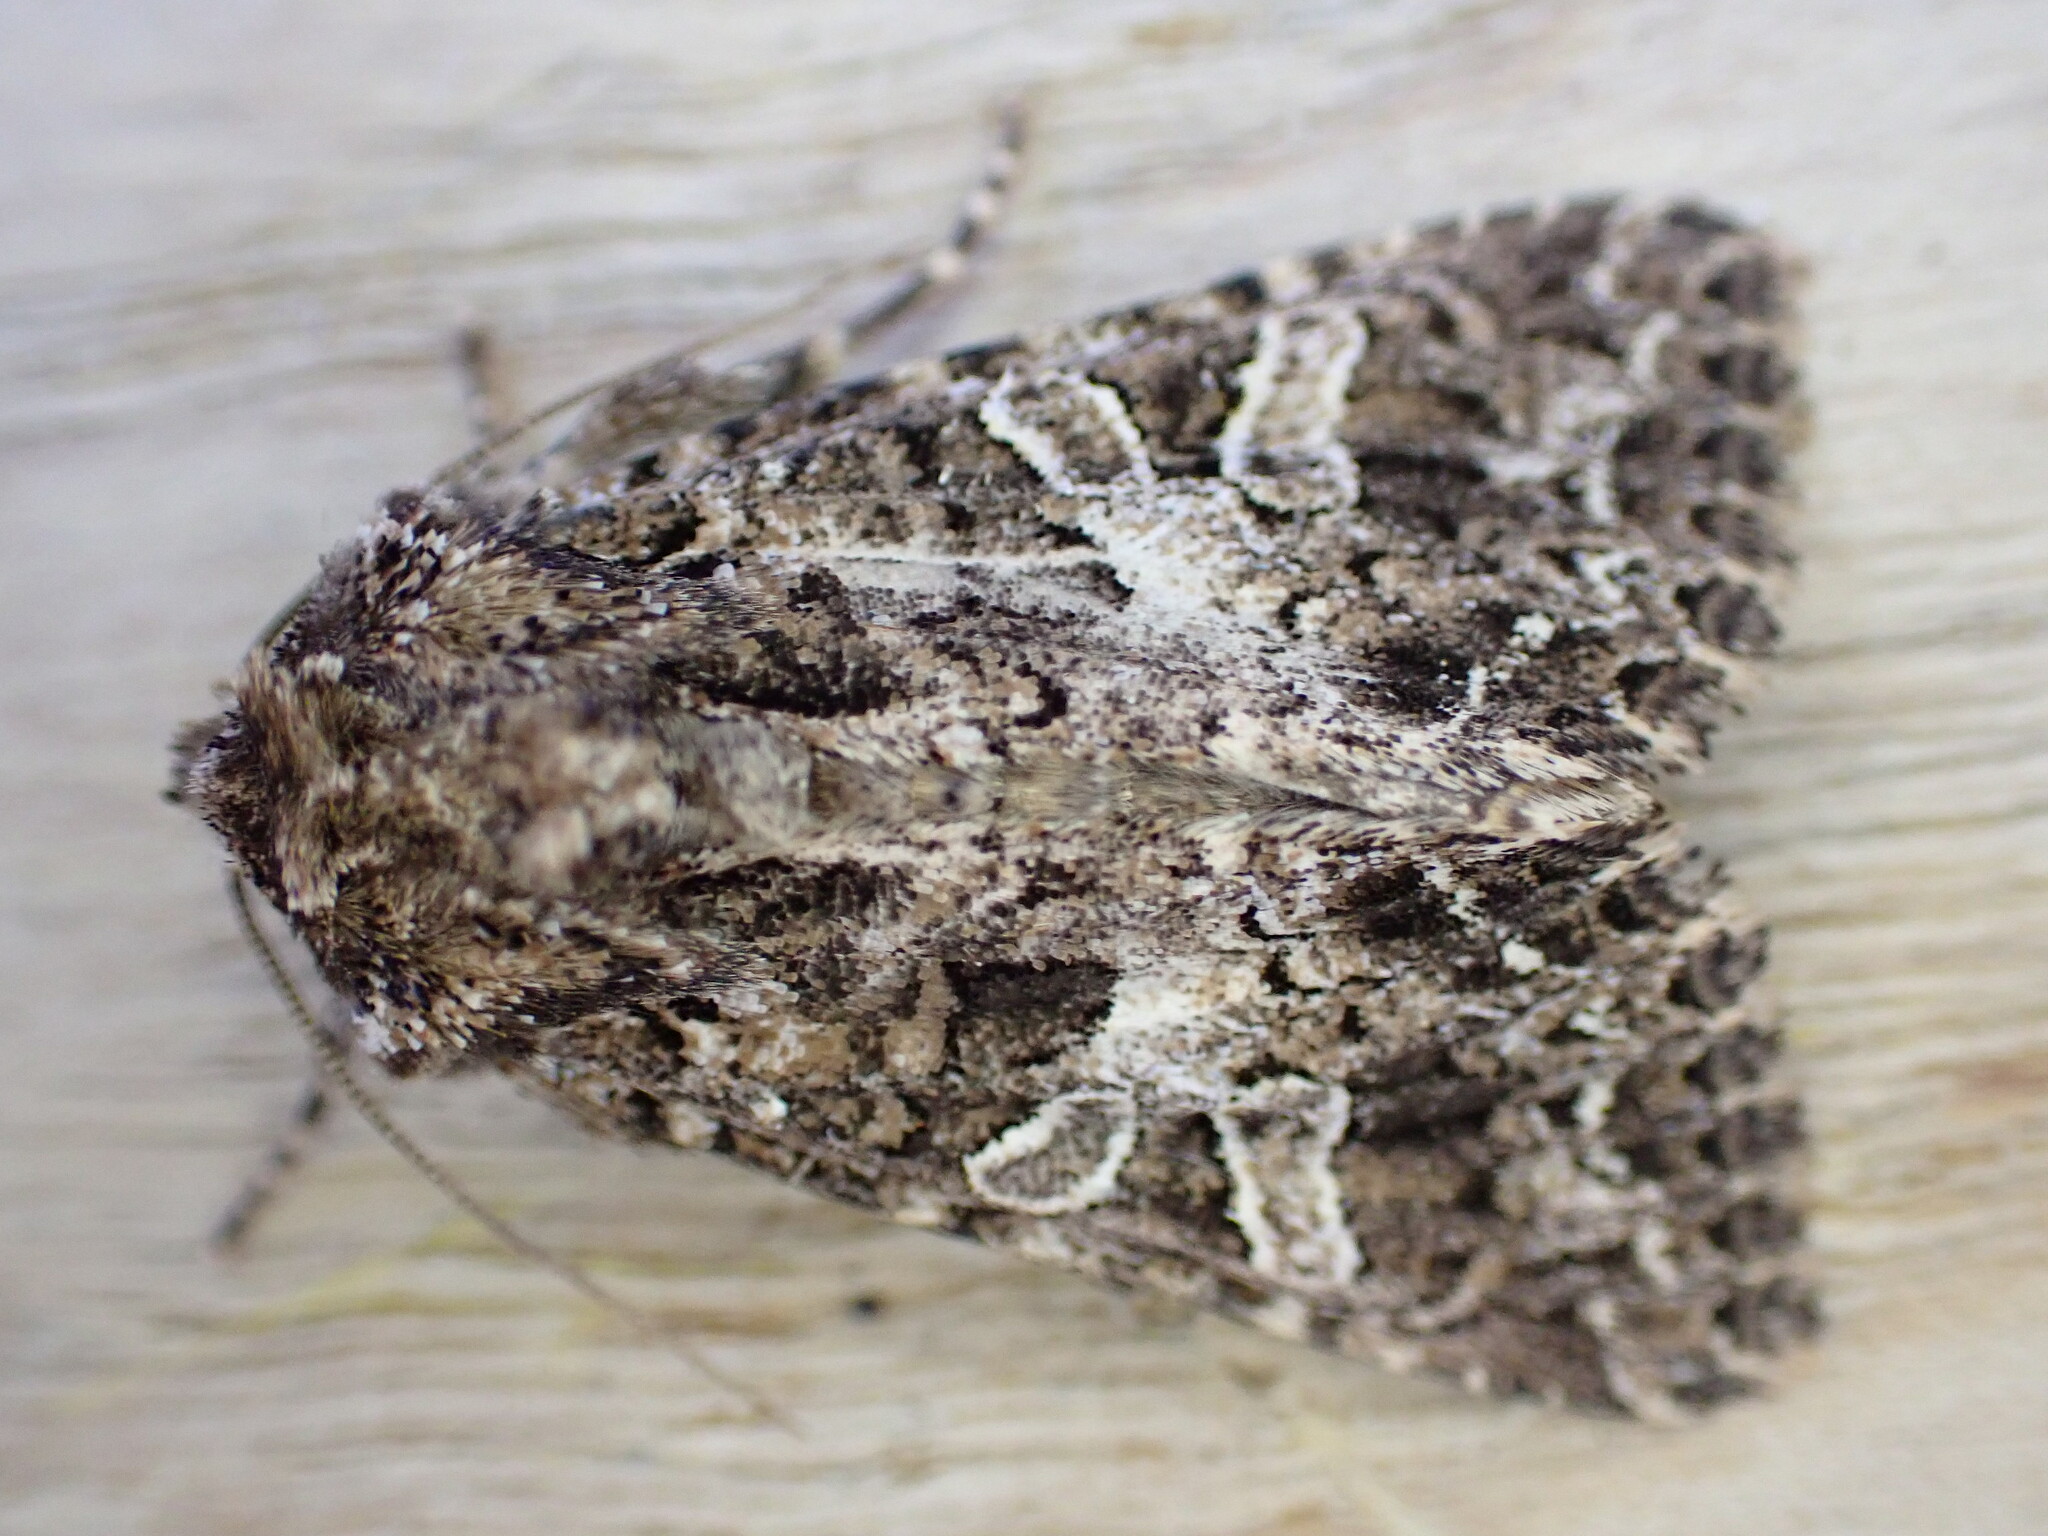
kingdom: Animalia
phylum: Arthropoda
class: Insecta
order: Lepidoptera
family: Noctuidae
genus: Hadena
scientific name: Hadena bicruris
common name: Lychnis
